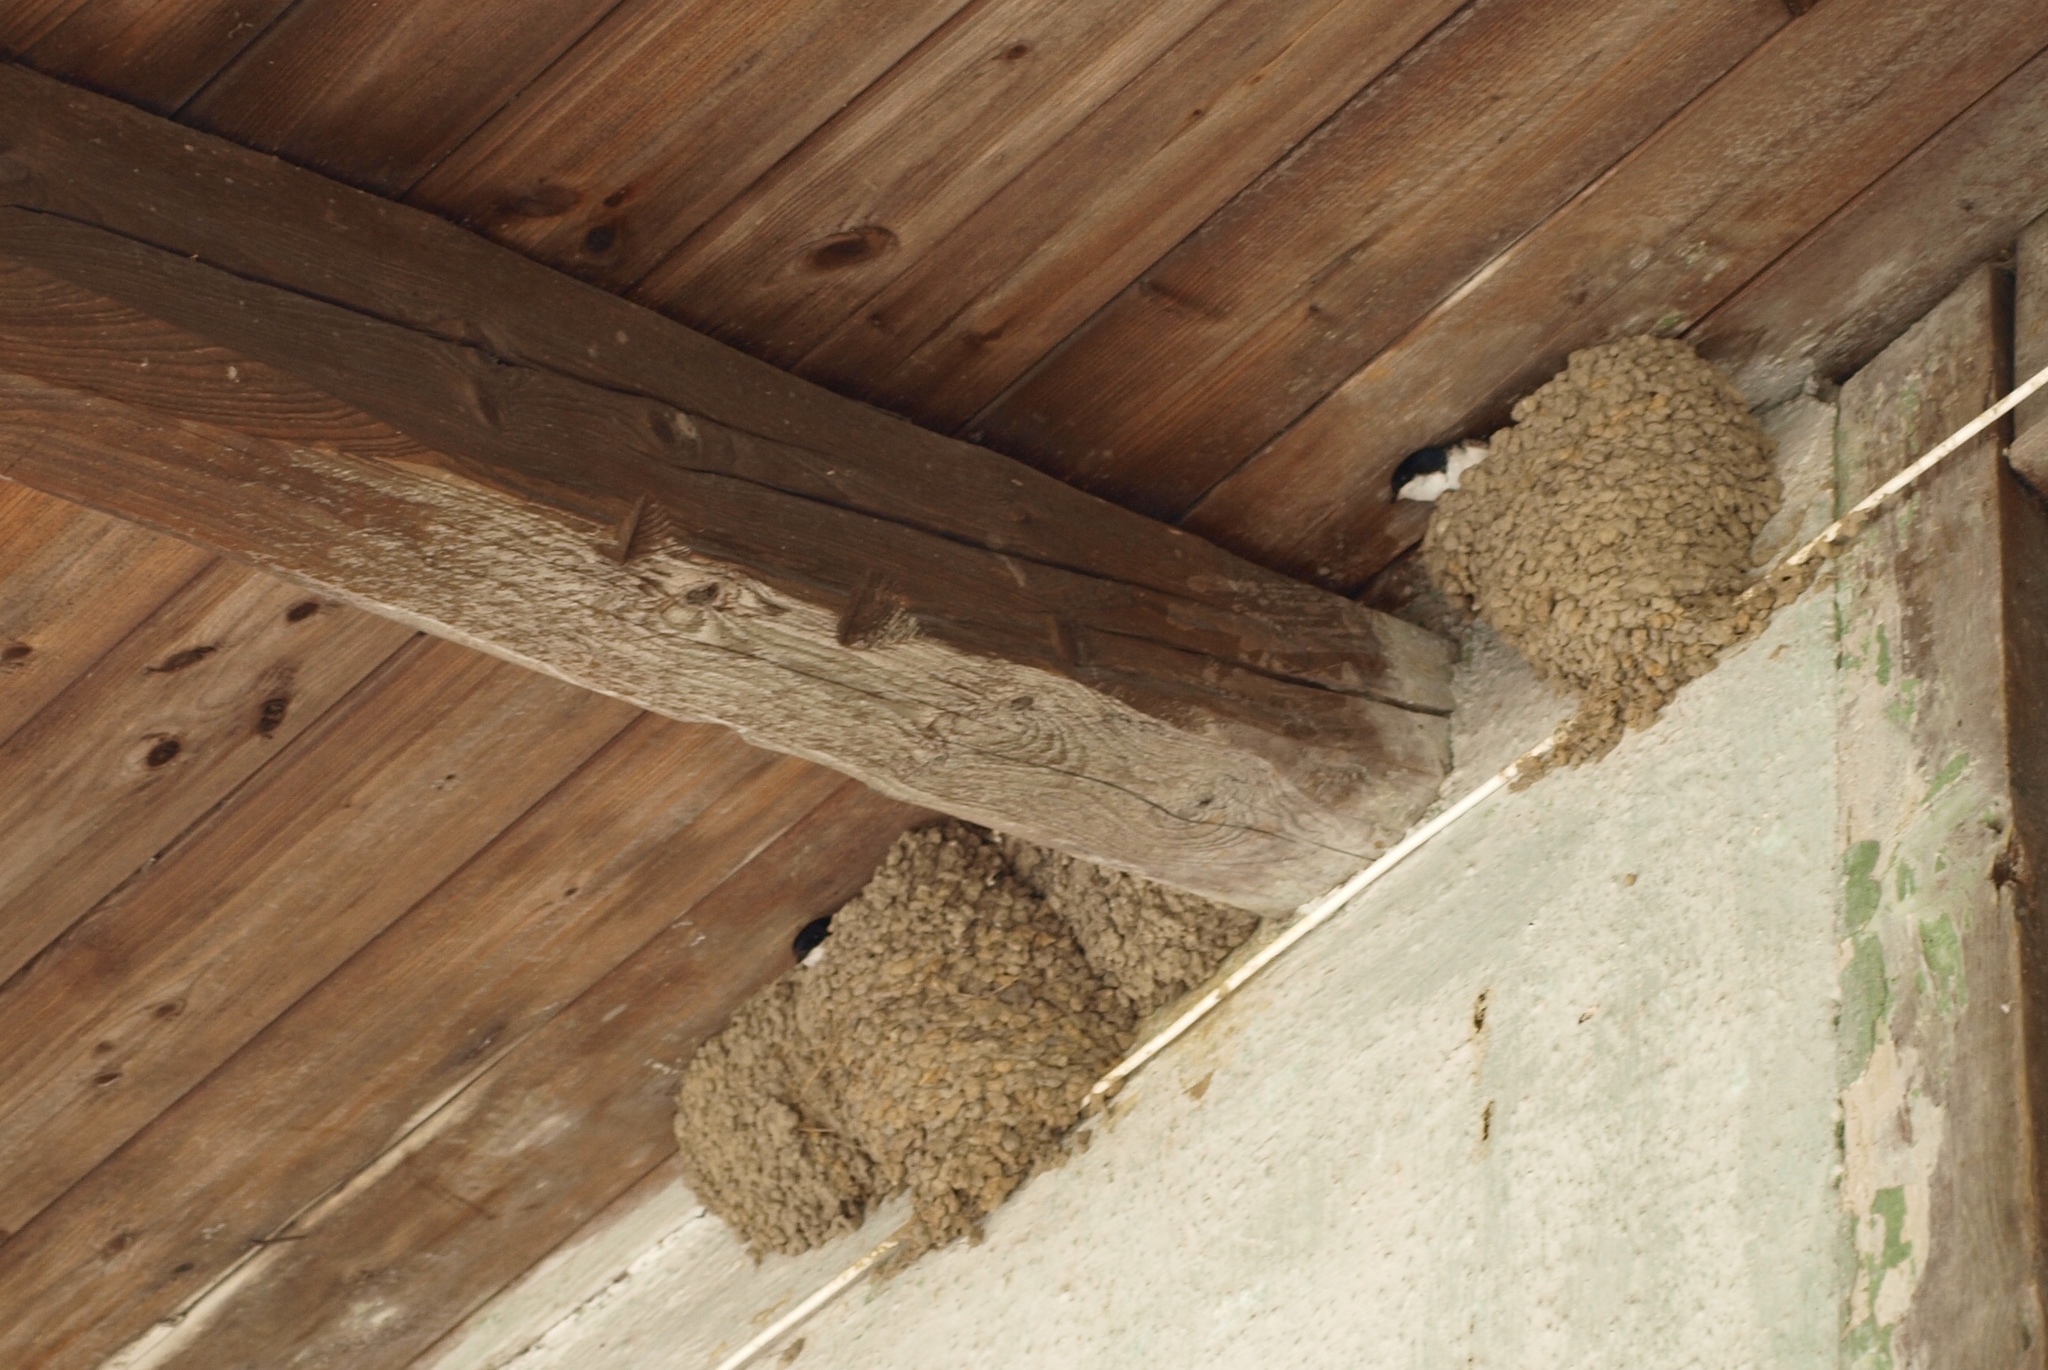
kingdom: Animalia
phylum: Chordata
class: Aves
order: Passeriformes
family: Hirundinidae
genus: Delichon
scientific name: Delichon urbicum
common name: Common house martin
